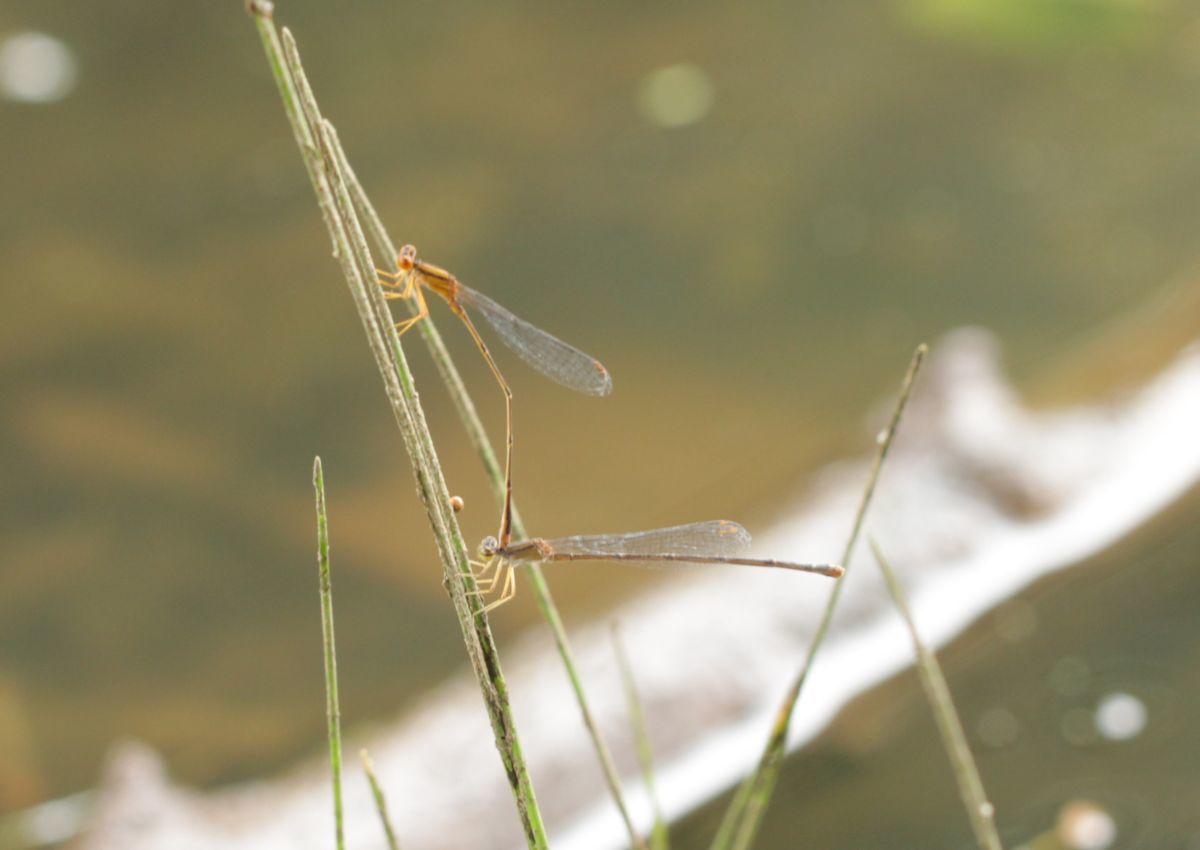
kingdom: Animalia
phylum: Arthropoda
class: Insecta
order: Odonata
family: Coenagrionidae
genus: Enallagma
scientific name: Enallagma signatum
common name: Orange bluet
